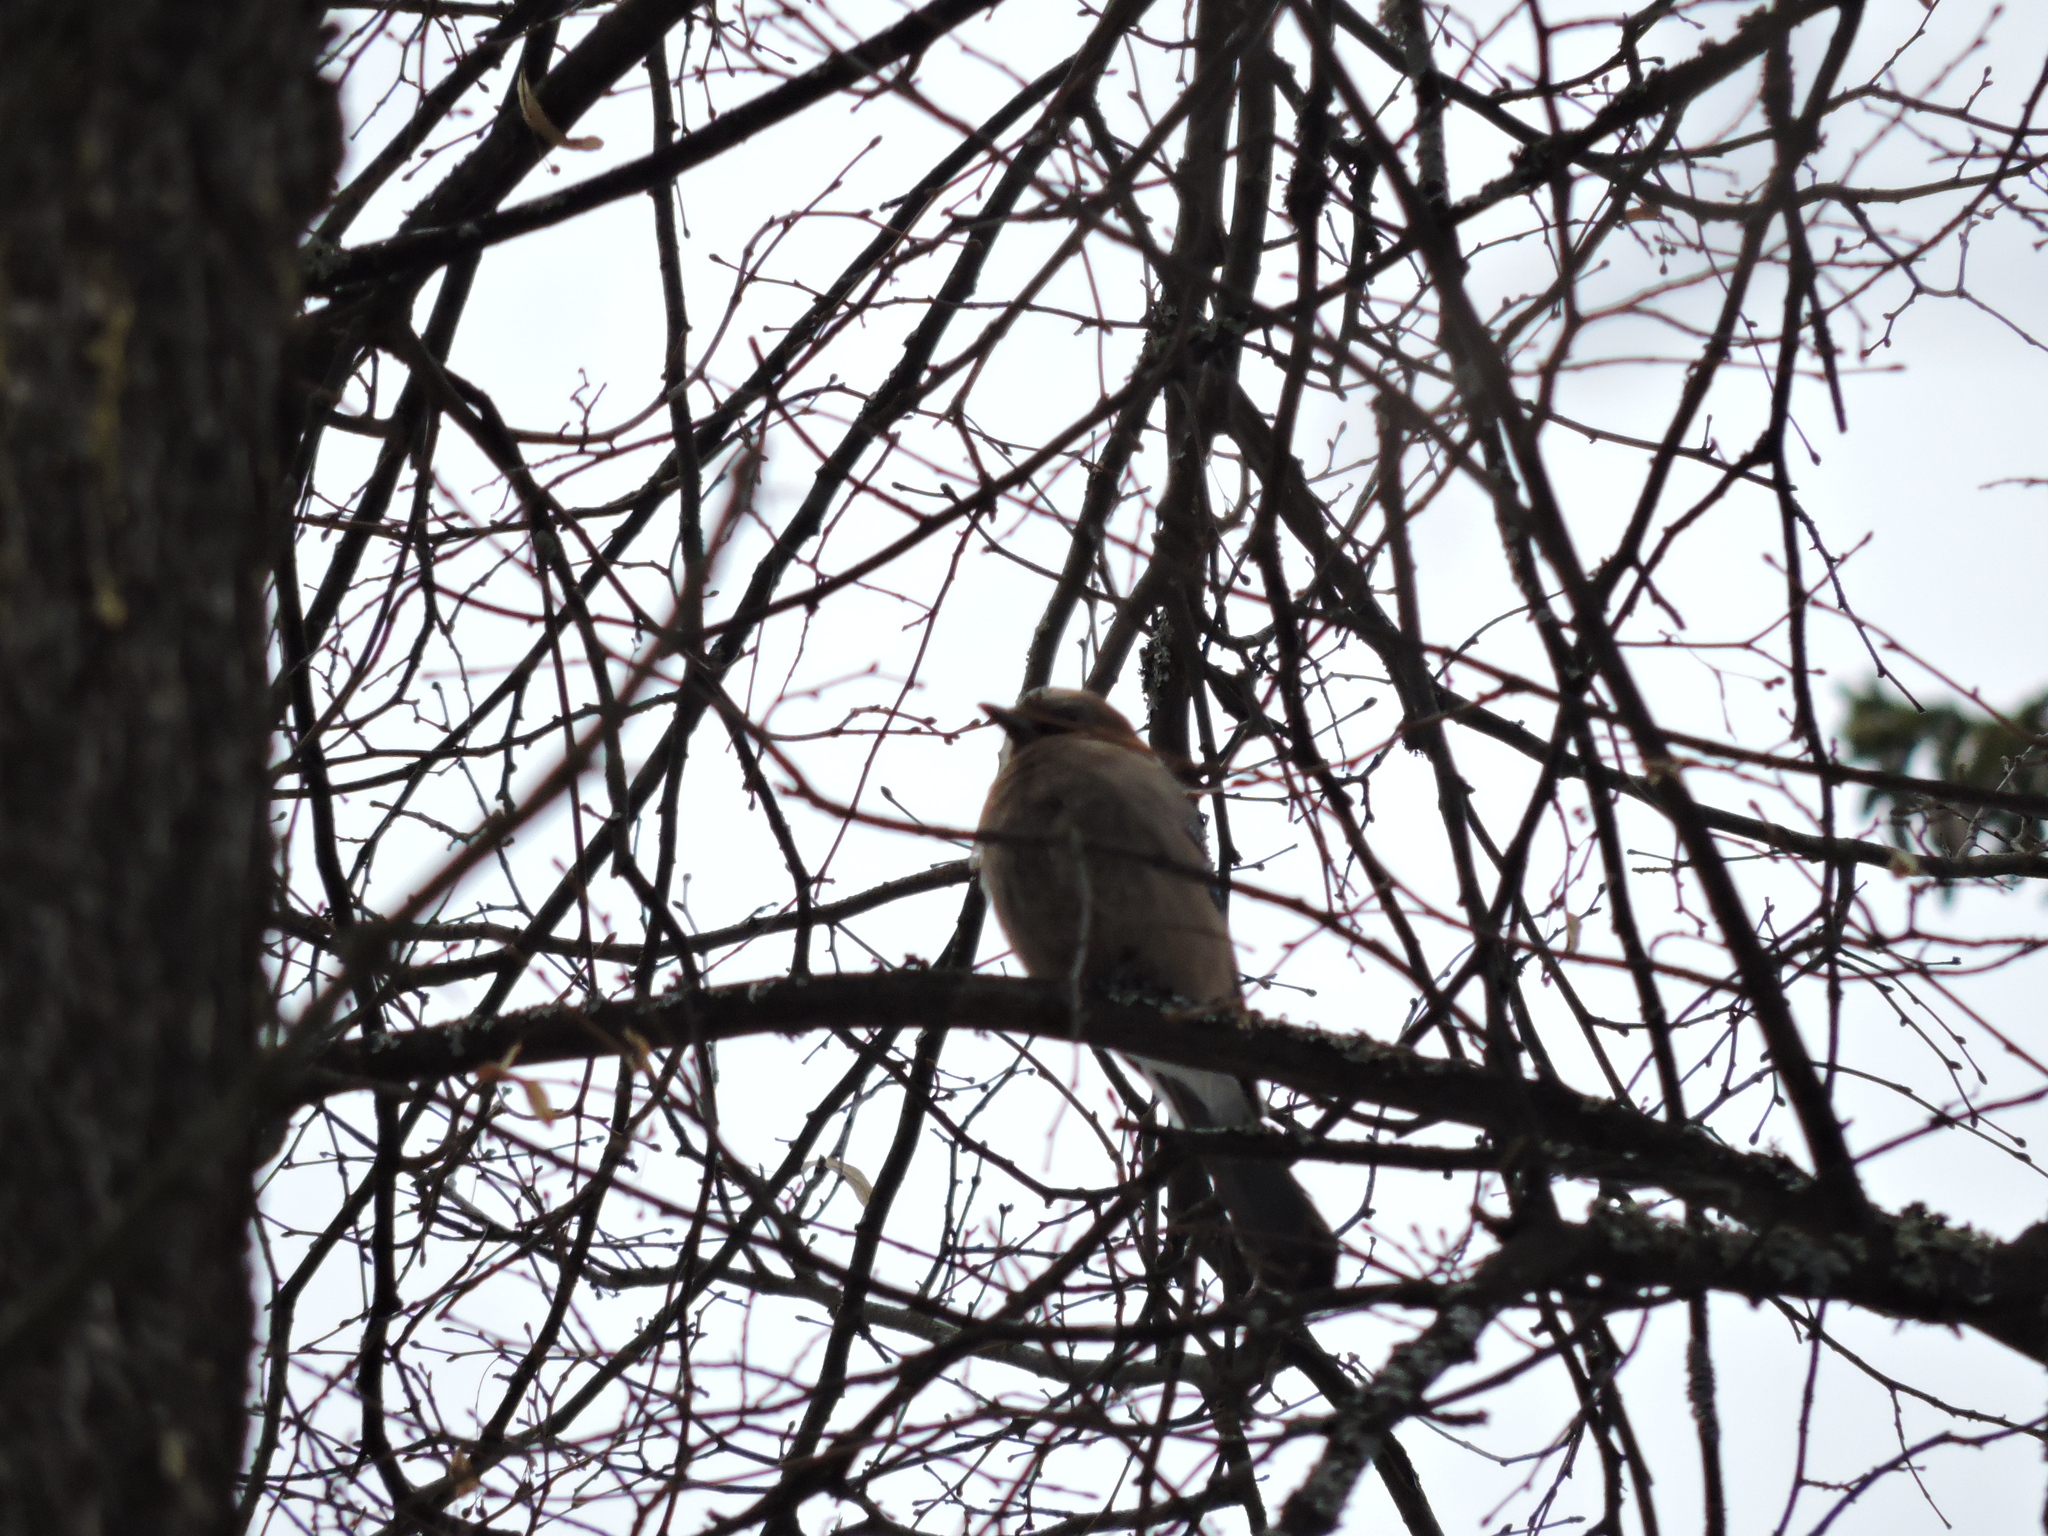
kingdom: Animalia
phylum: Chordata
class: Aves
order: Passeriformes
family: Corvidae
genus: Garrulus
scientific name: Garrulus glandarius
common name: Eurasian jay
